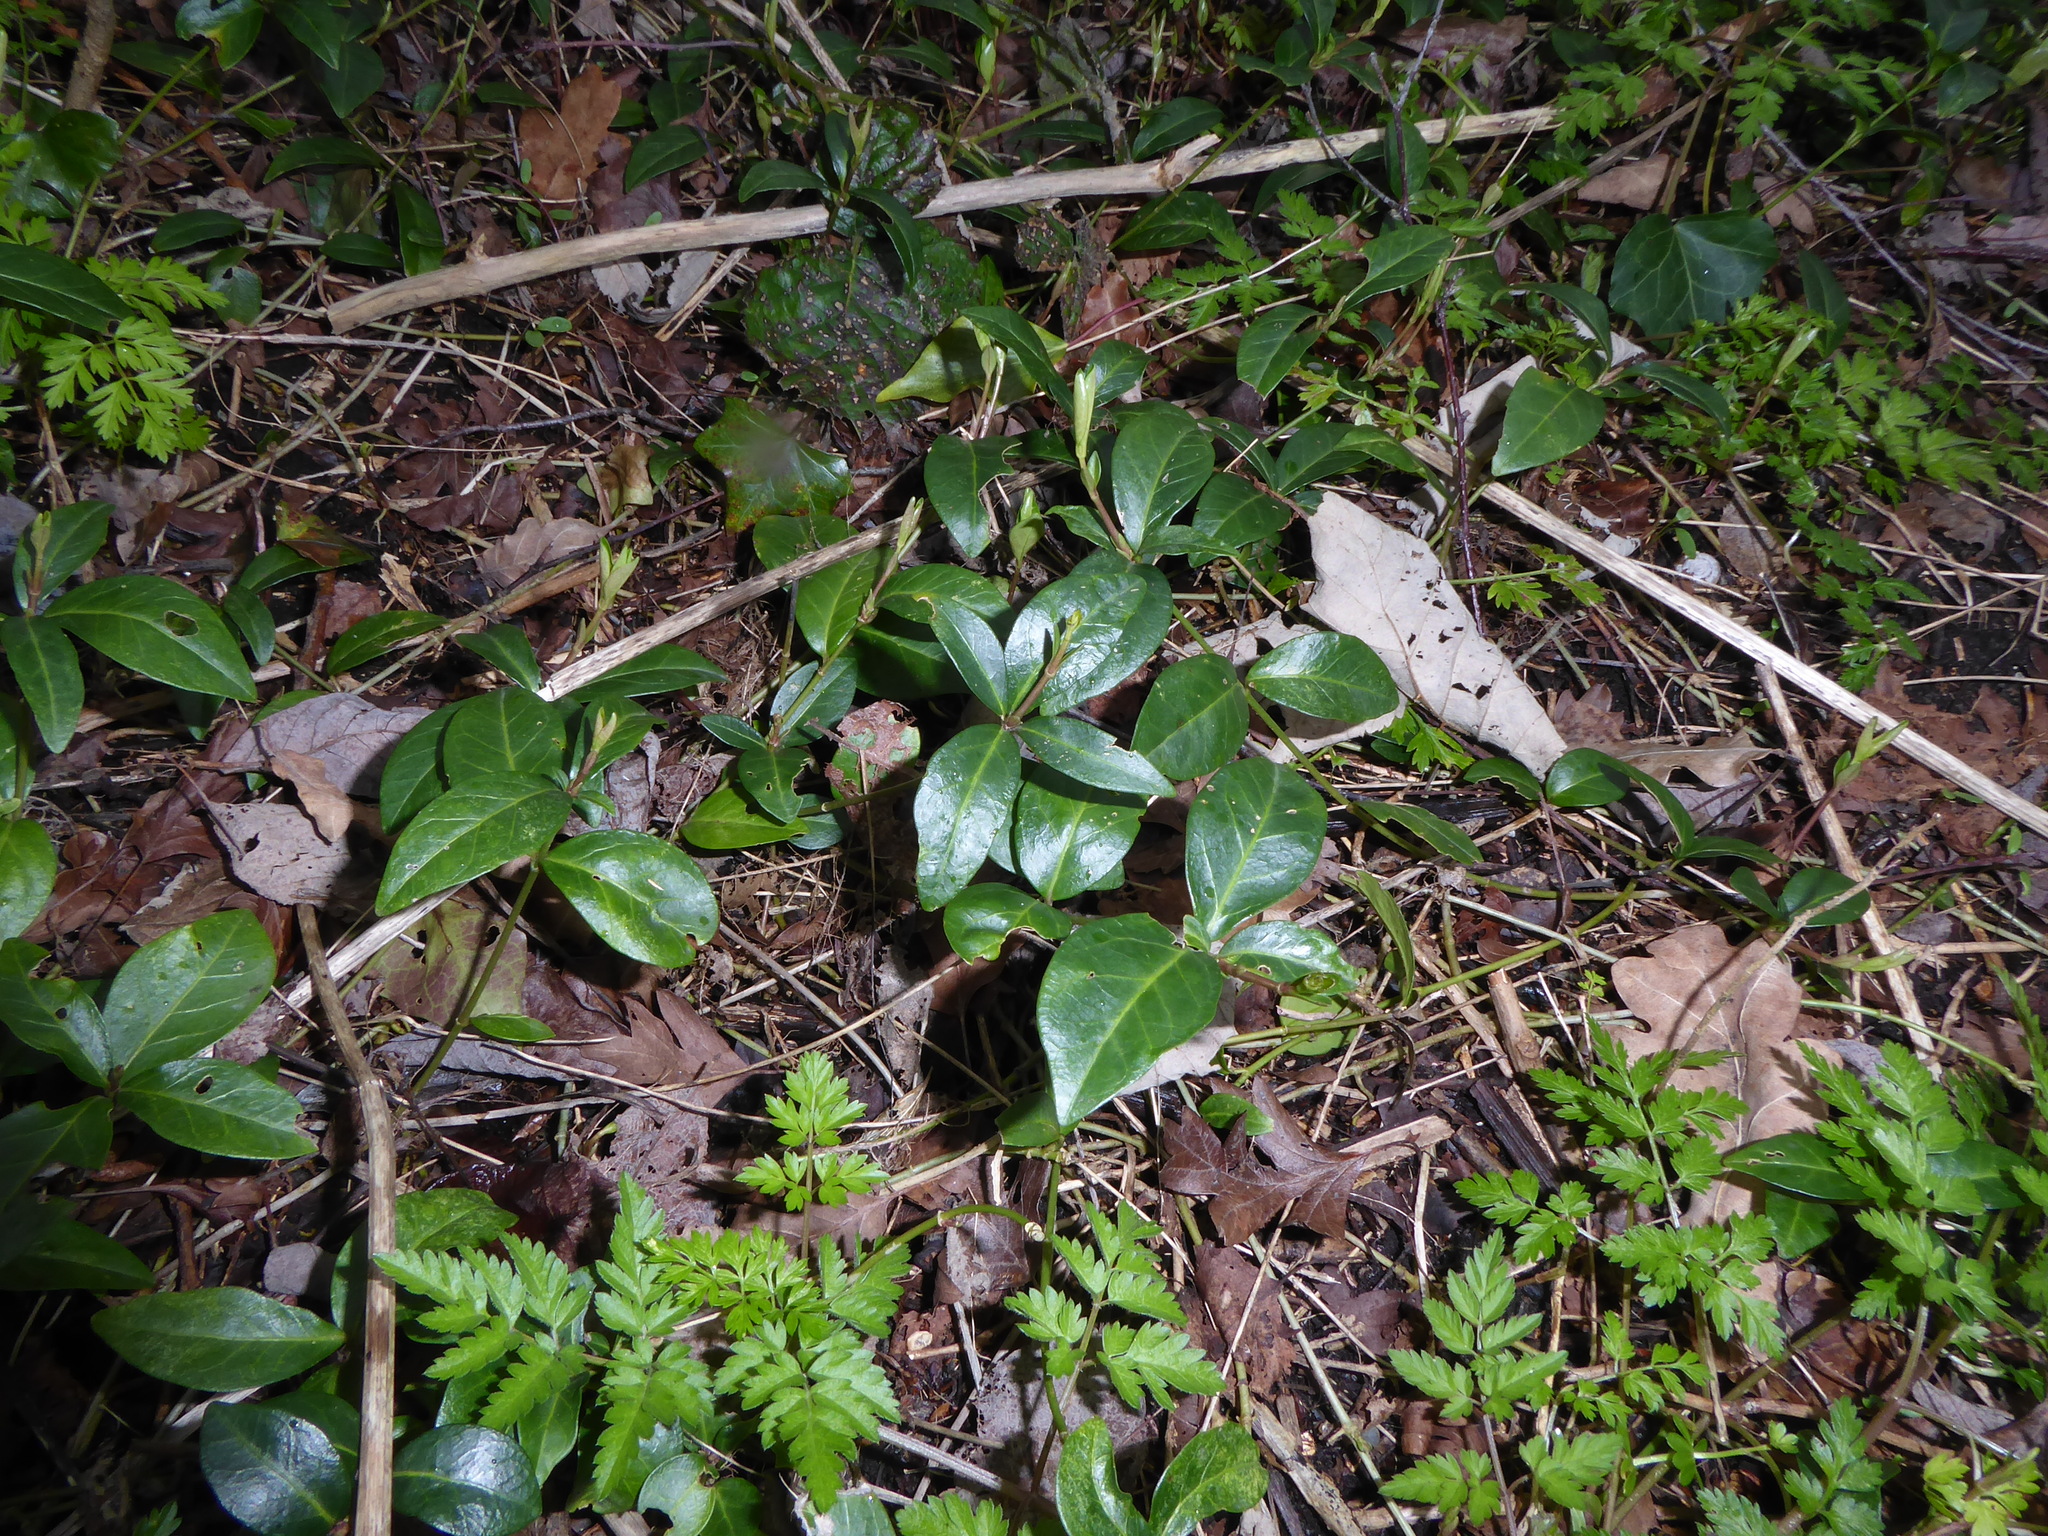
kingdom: Plantae
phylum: Tracheophyta
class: Magnoliopsida
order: Gentianales
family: Apocynaceae
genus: Vinca
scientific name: Vinca minor
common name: Lesser periwinkle
